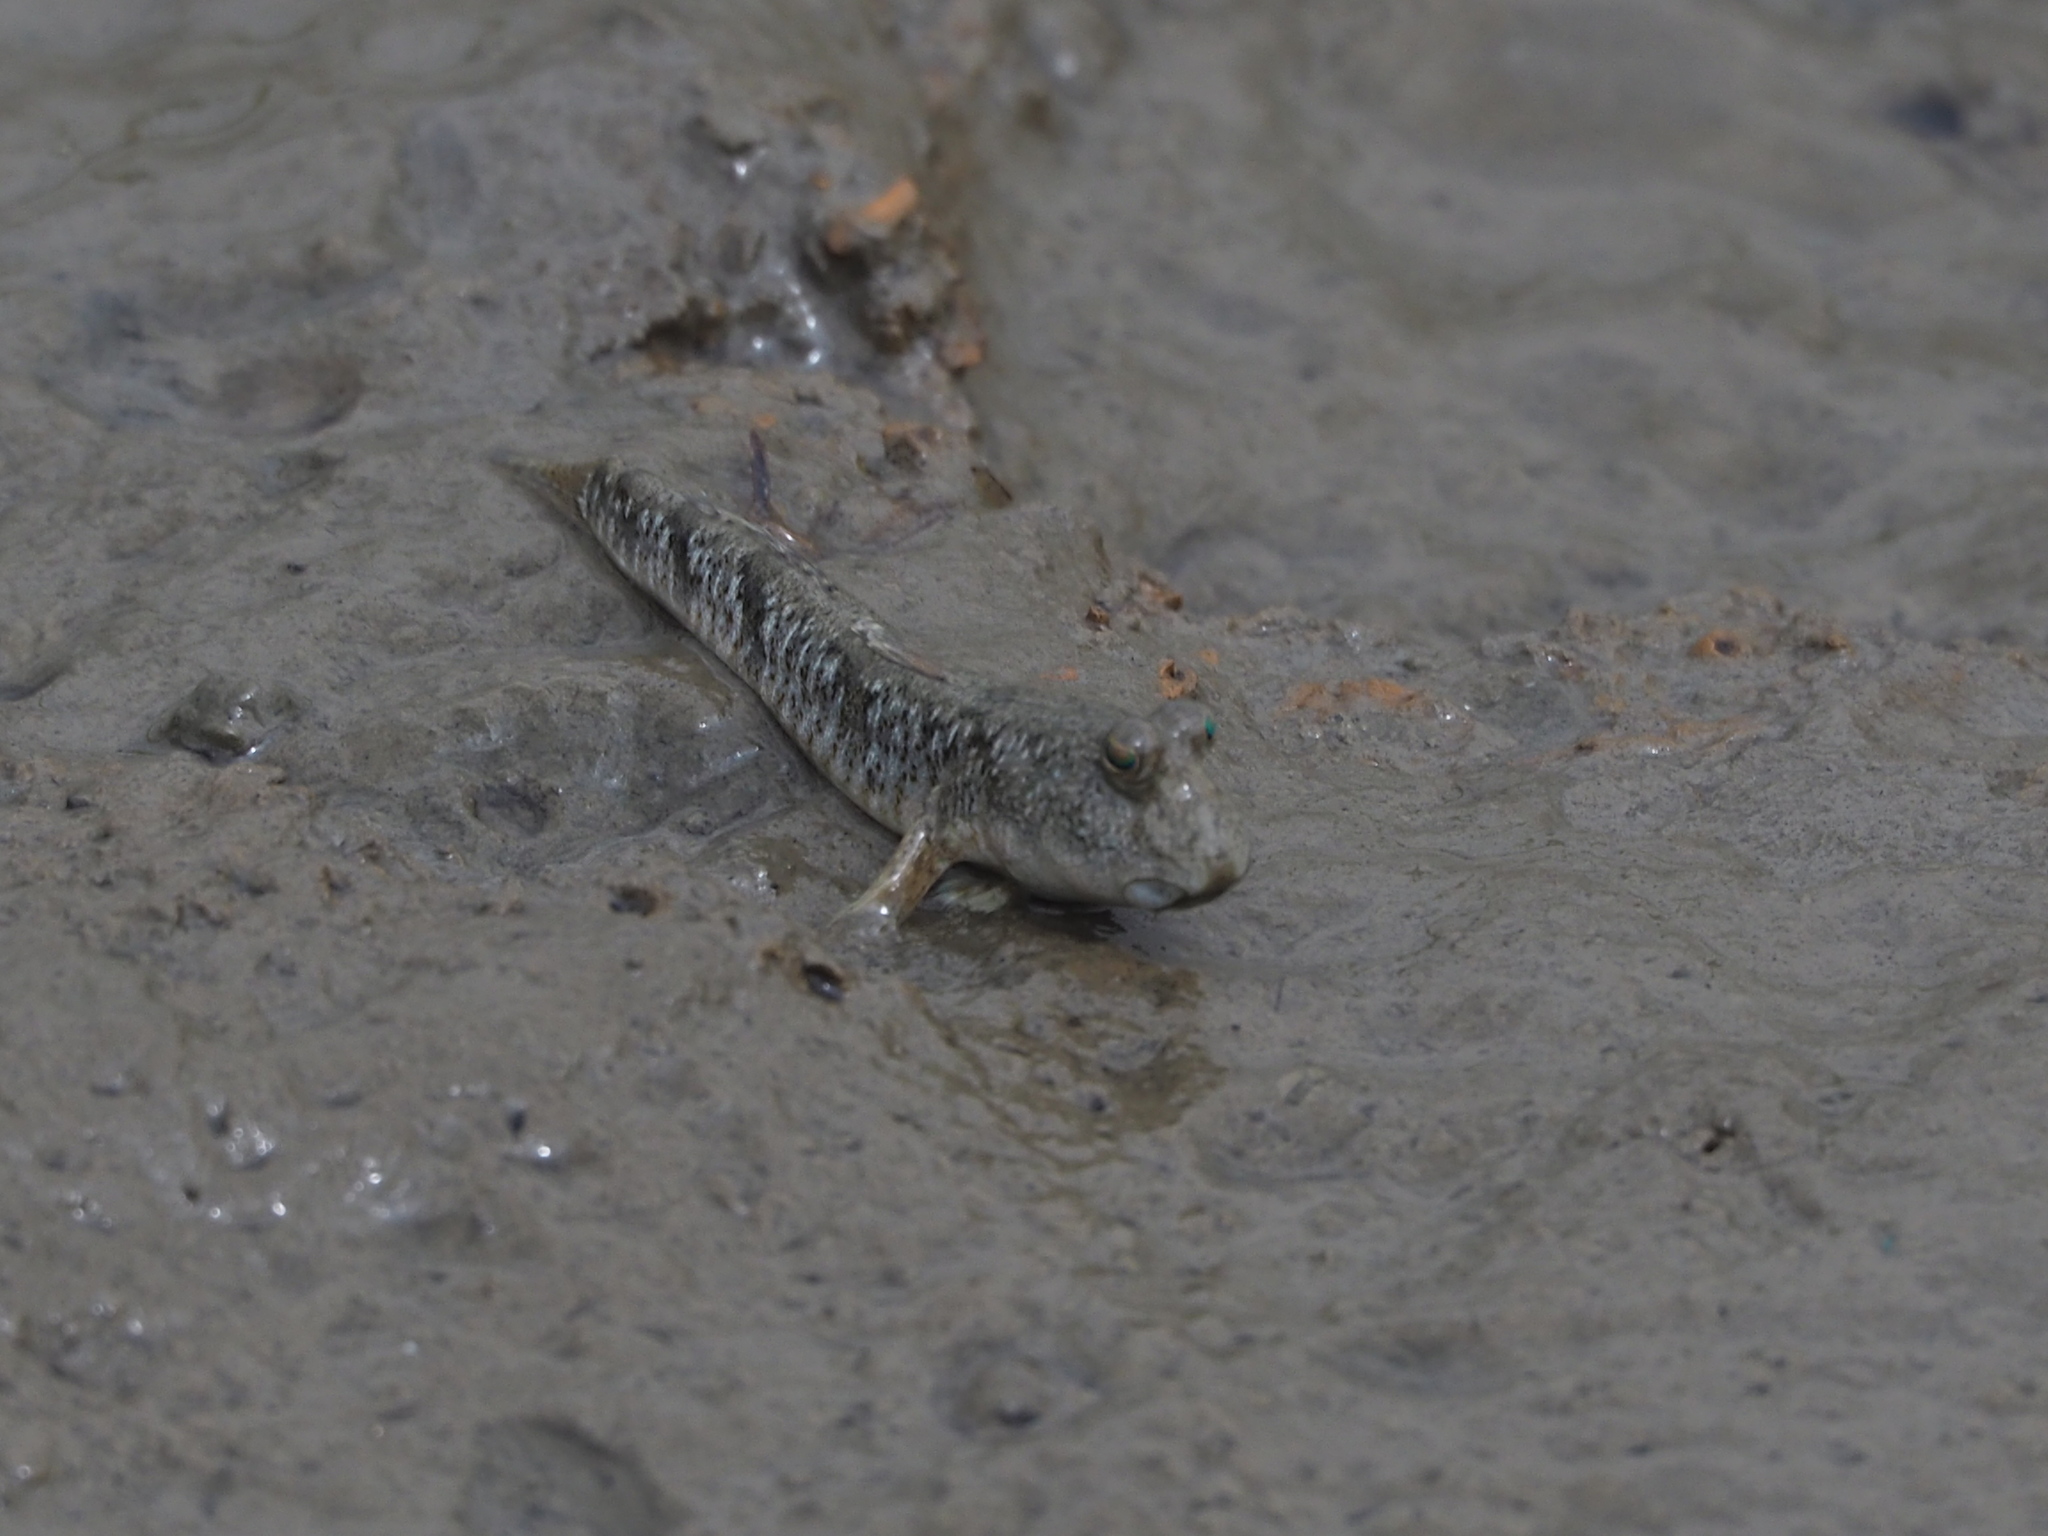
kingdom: Animalia
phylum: Chordata
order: Perciformes
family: Gobiidae
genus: Periophthalmus
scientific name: Periophthalmus modestus
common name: Black goby
